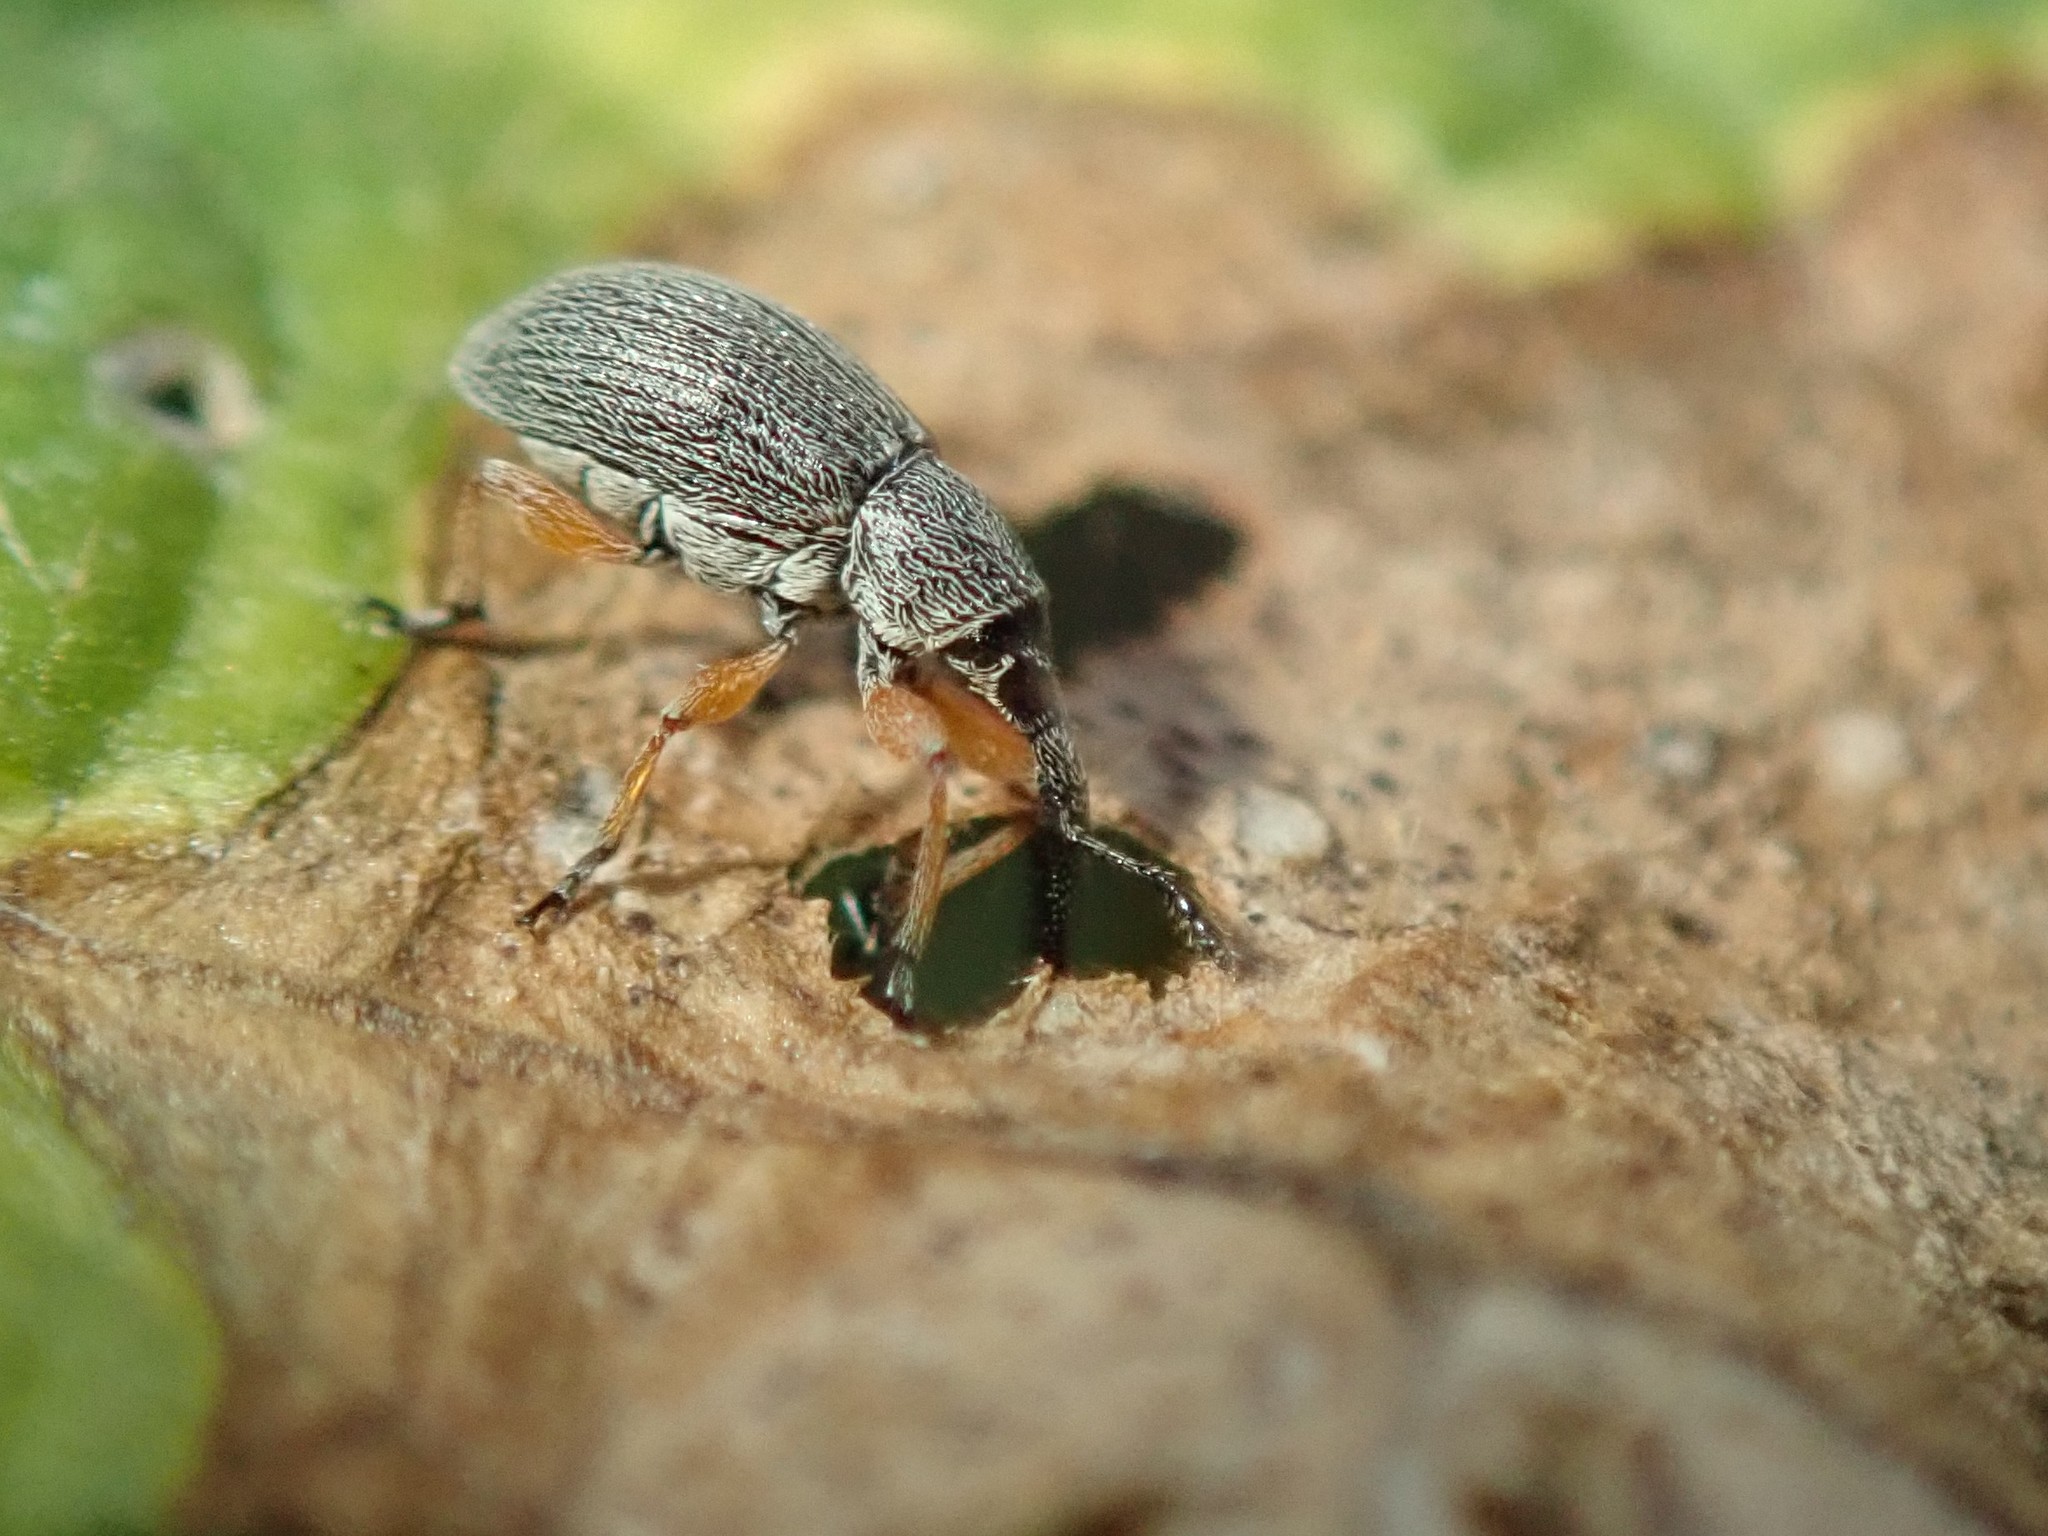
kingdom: Animalia
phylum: Arthropoda
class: Insecta
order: Coleoptera
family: Brentidae
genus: Rhopalapion
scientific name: Rhopalapion longirostre
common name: Hollyhock weevil
